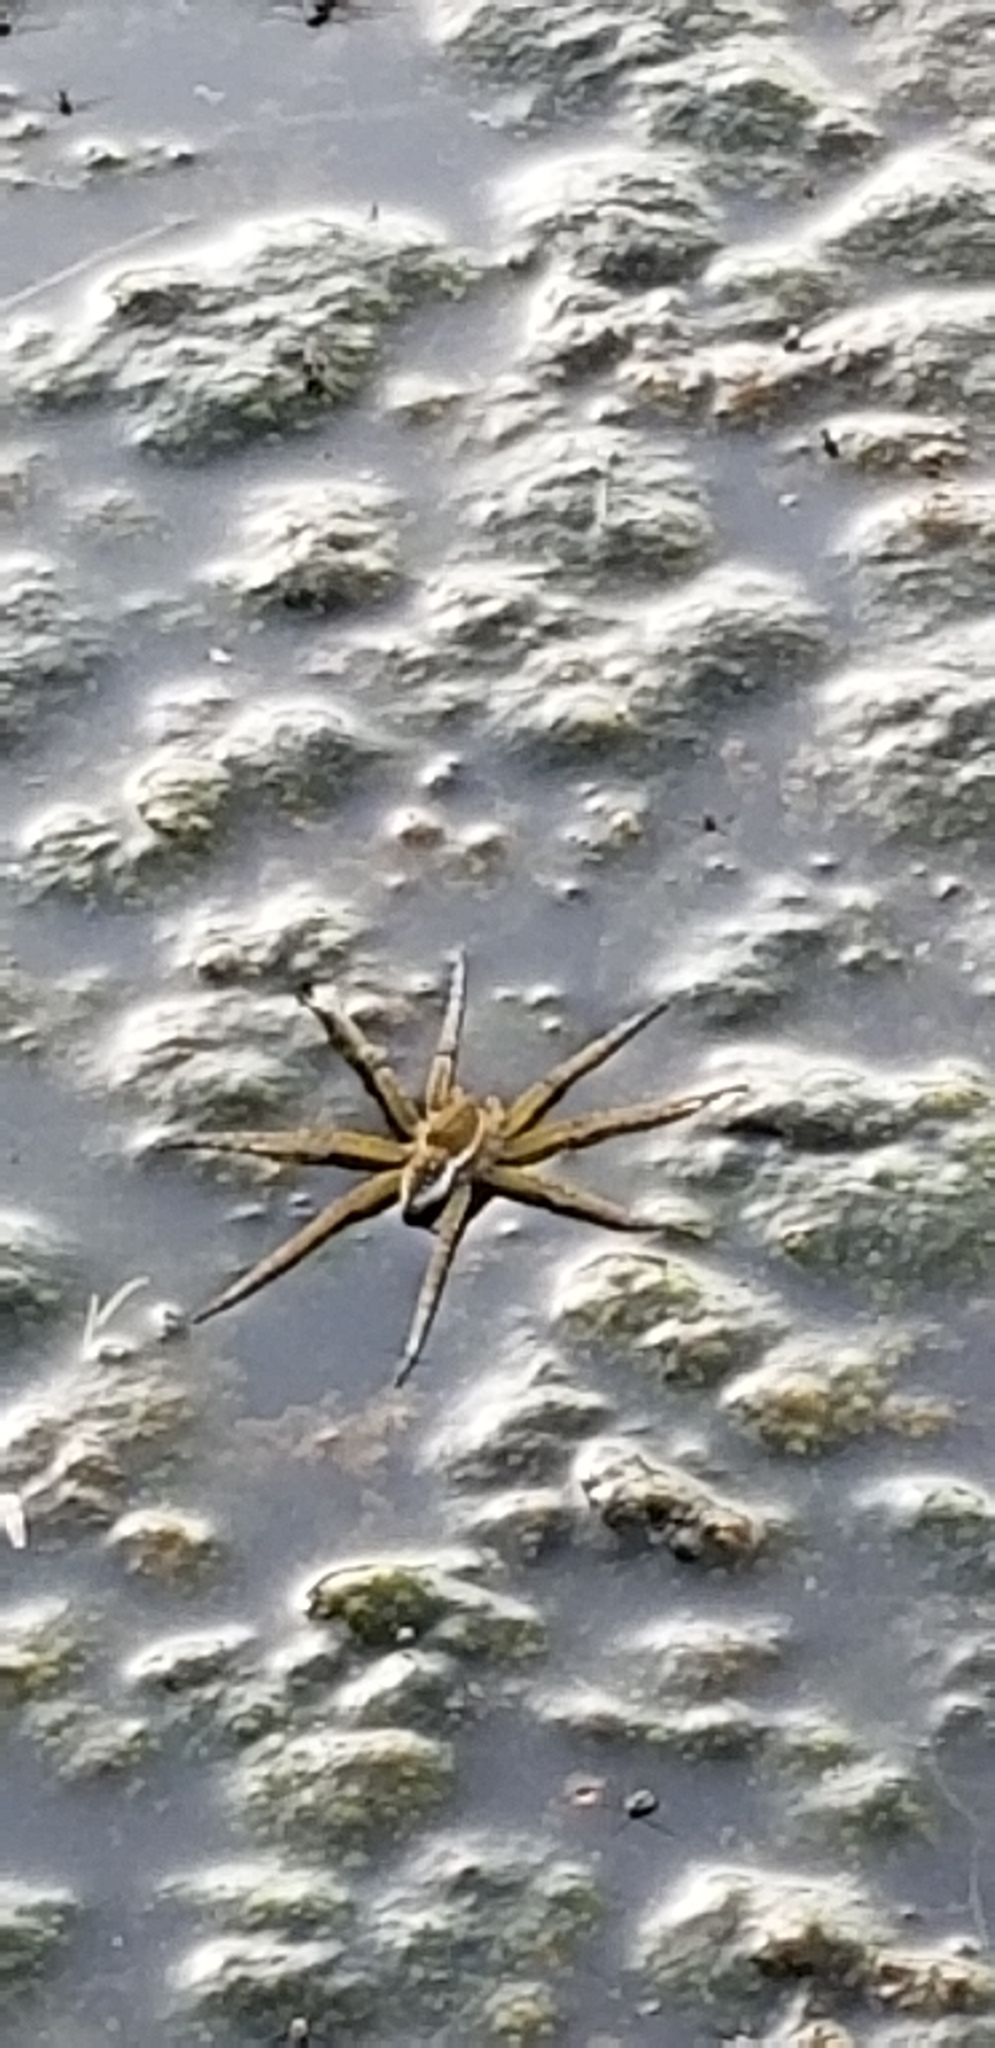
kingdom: Animalia
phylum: Arthropoda
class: Arachnida
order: Araneae
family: Pisauridae
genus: Dolomedes
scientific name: Dolomedes triton
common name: Six-spotted fishing spider
